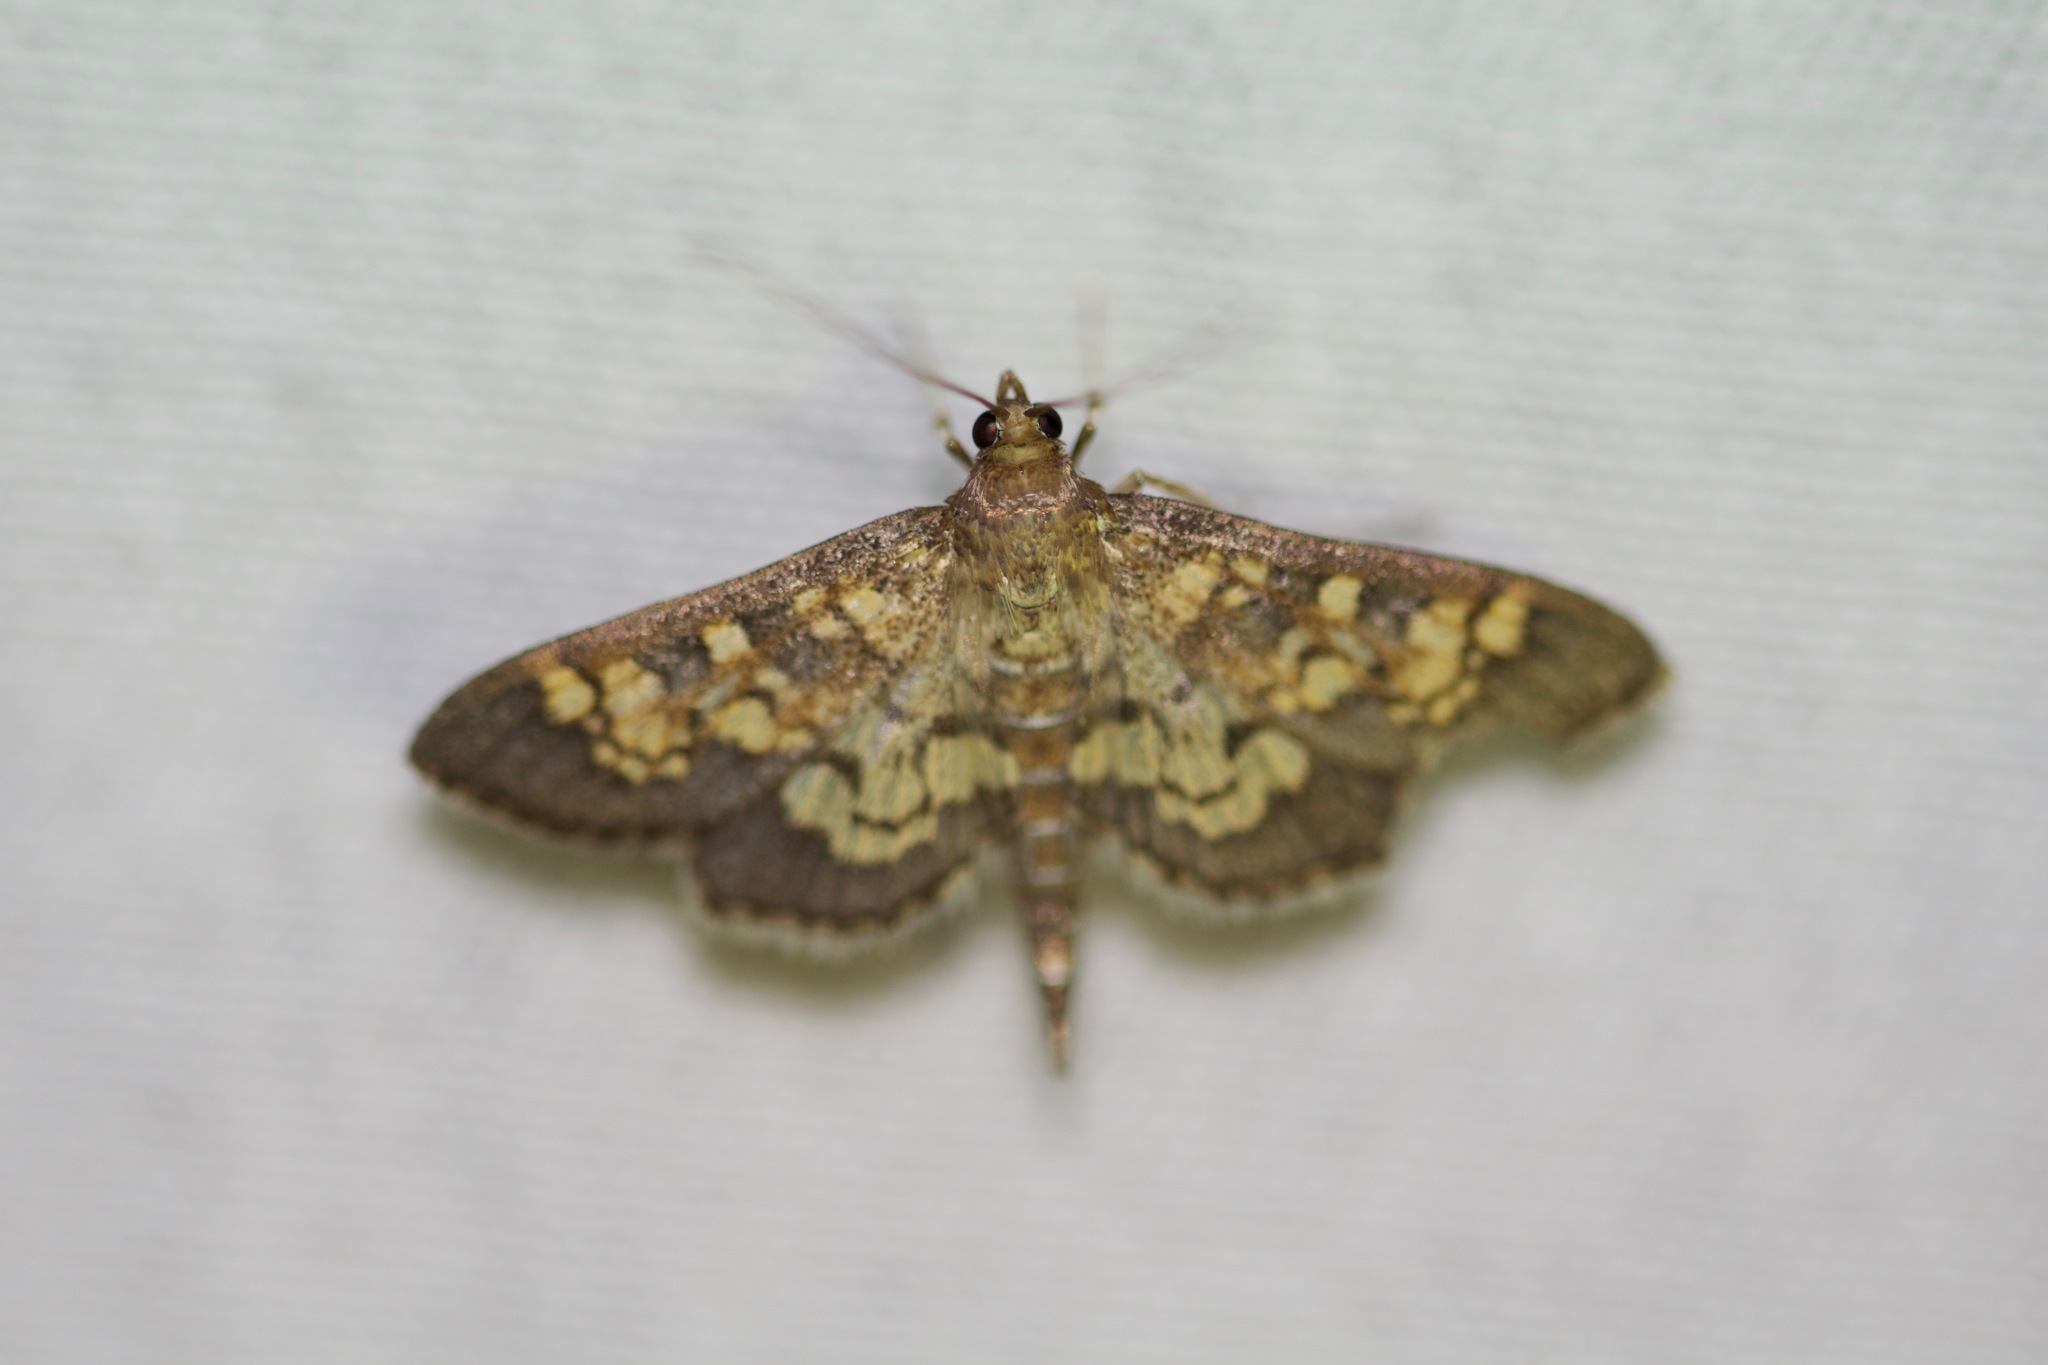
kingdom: Animalia
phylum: Arthropoda
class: Insecta
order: Lepidoptera
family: Crambidae
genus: Epipagis
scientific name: Epipagis adipaloides
